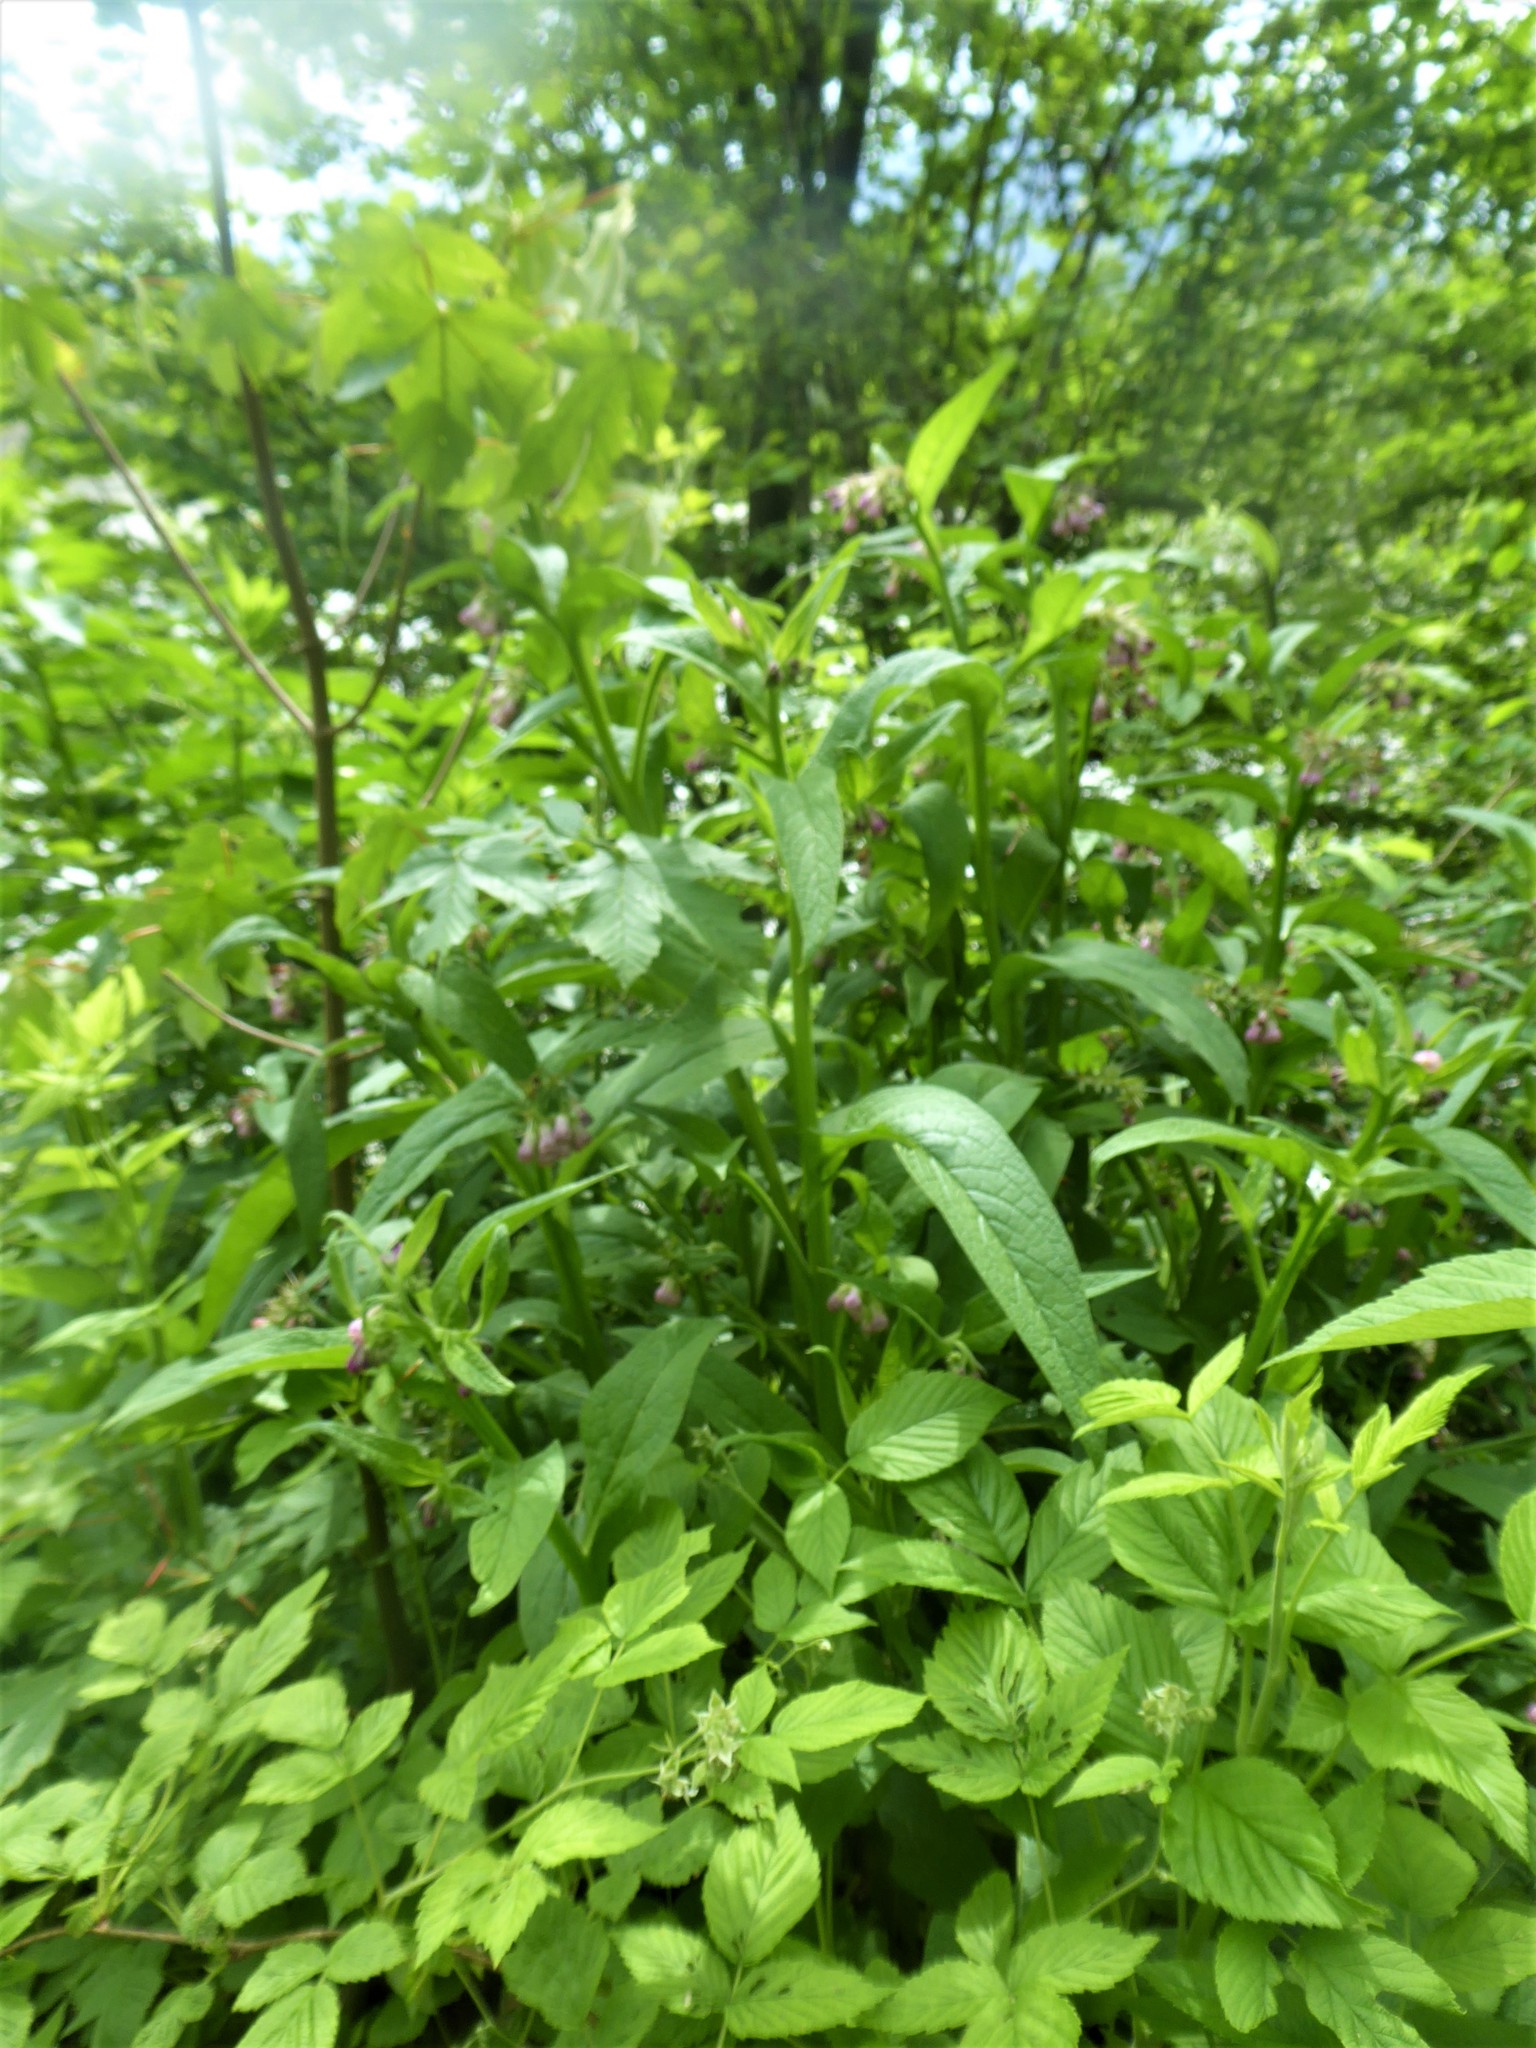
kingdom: Plantae
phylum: Tracheophyta
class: Magnoliopsida
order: Boraginales
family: Boraginaceae
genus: Symphytum
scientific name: Symphytum officinale
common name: Common comfrey
